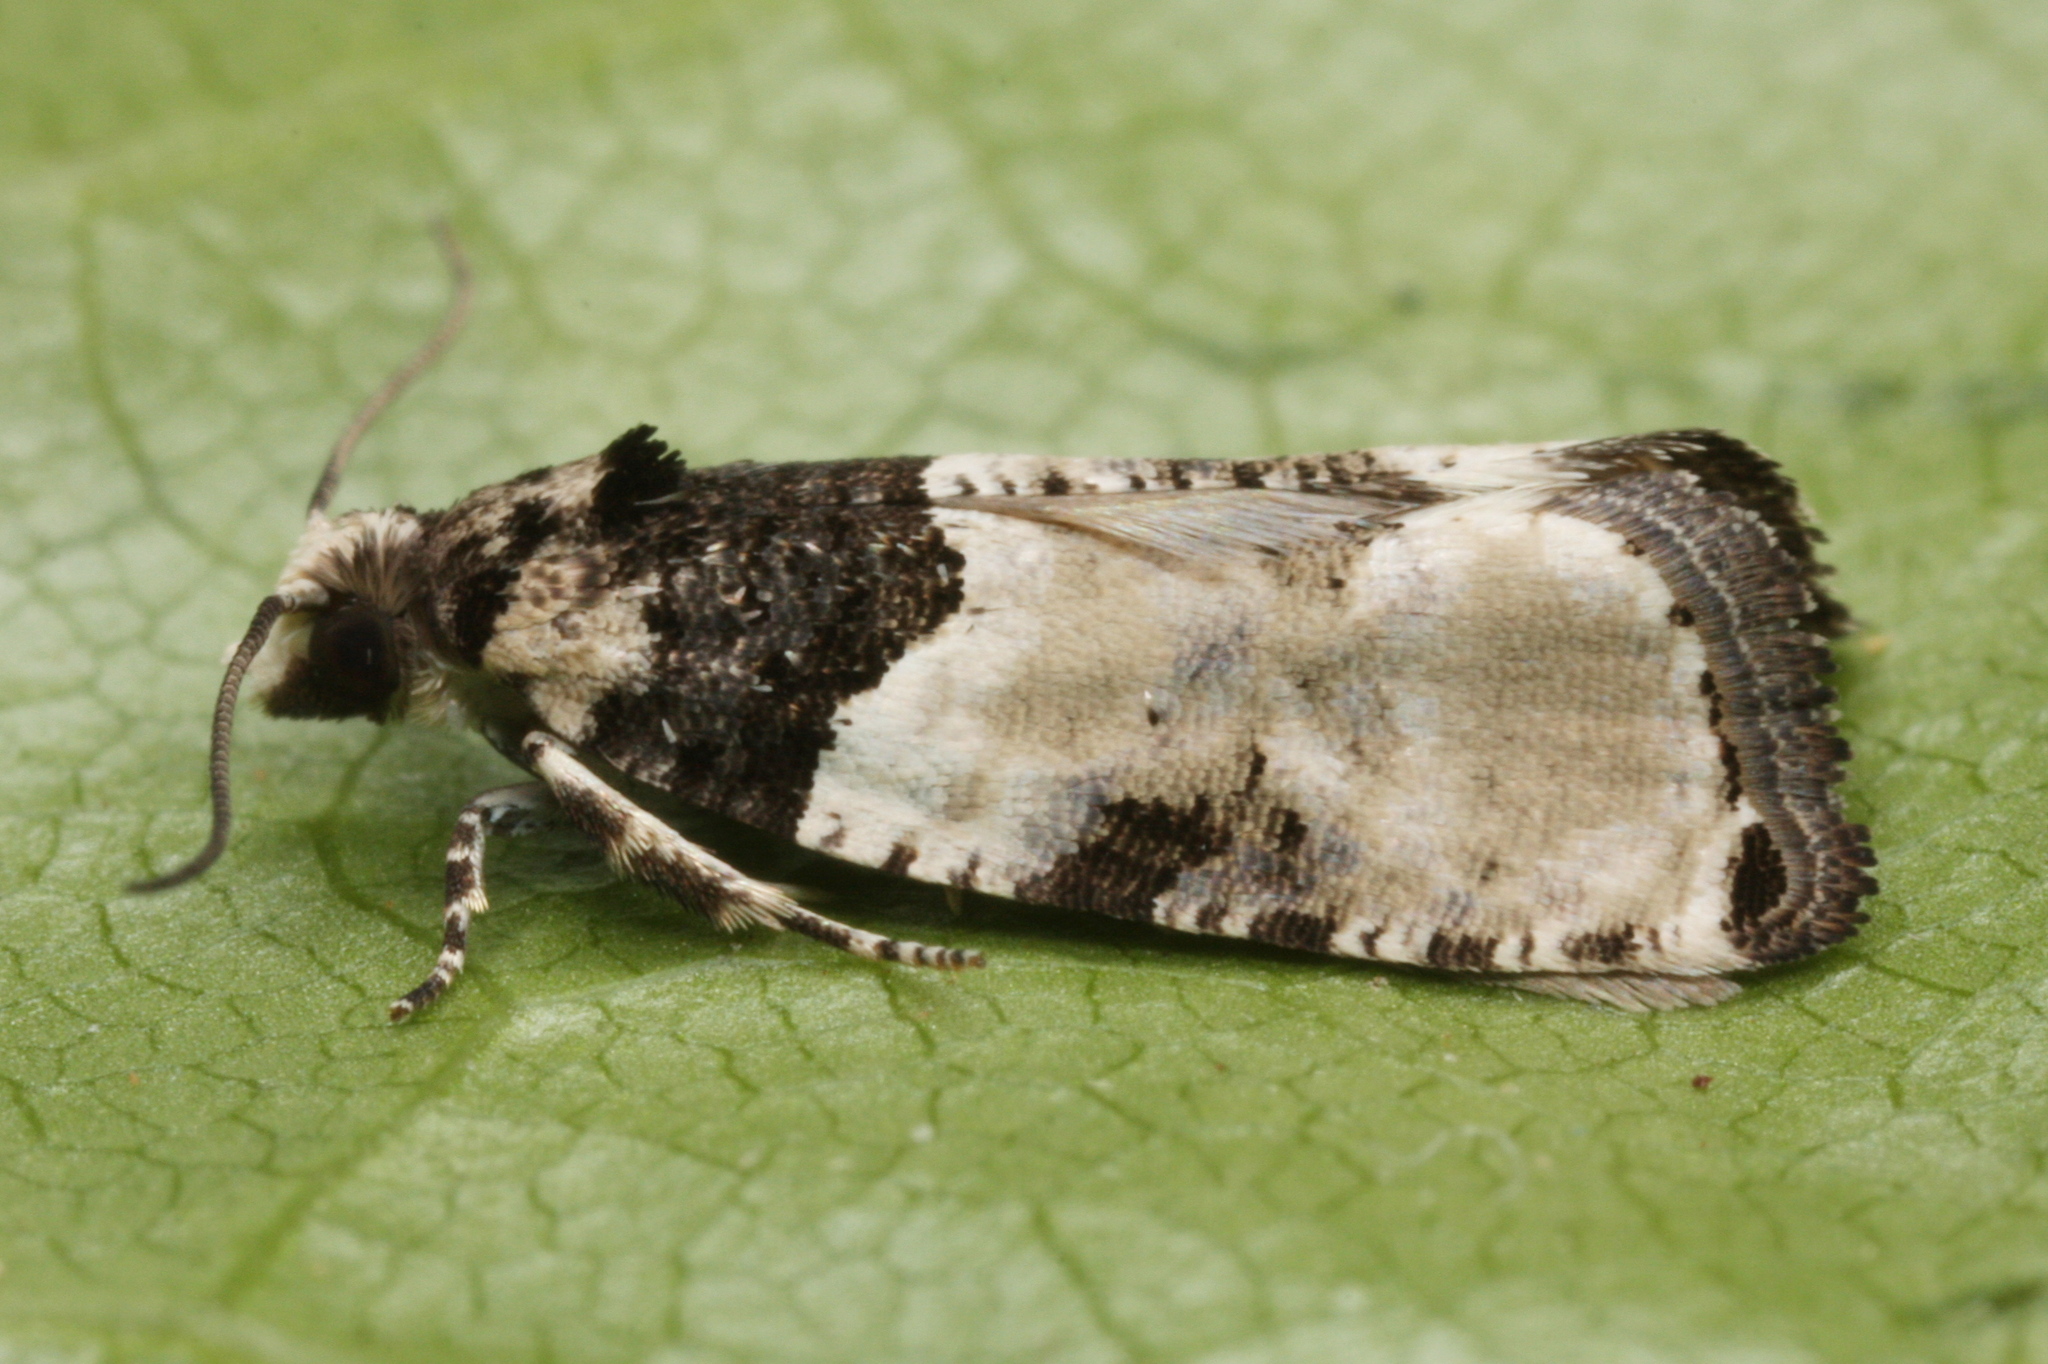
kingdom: Animalia
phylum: Arthropoda
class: Insecta
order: Lepidoptera
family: Tortricidae
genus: Gibberifera
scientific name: Gibberifera simplana
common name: Least shoot
